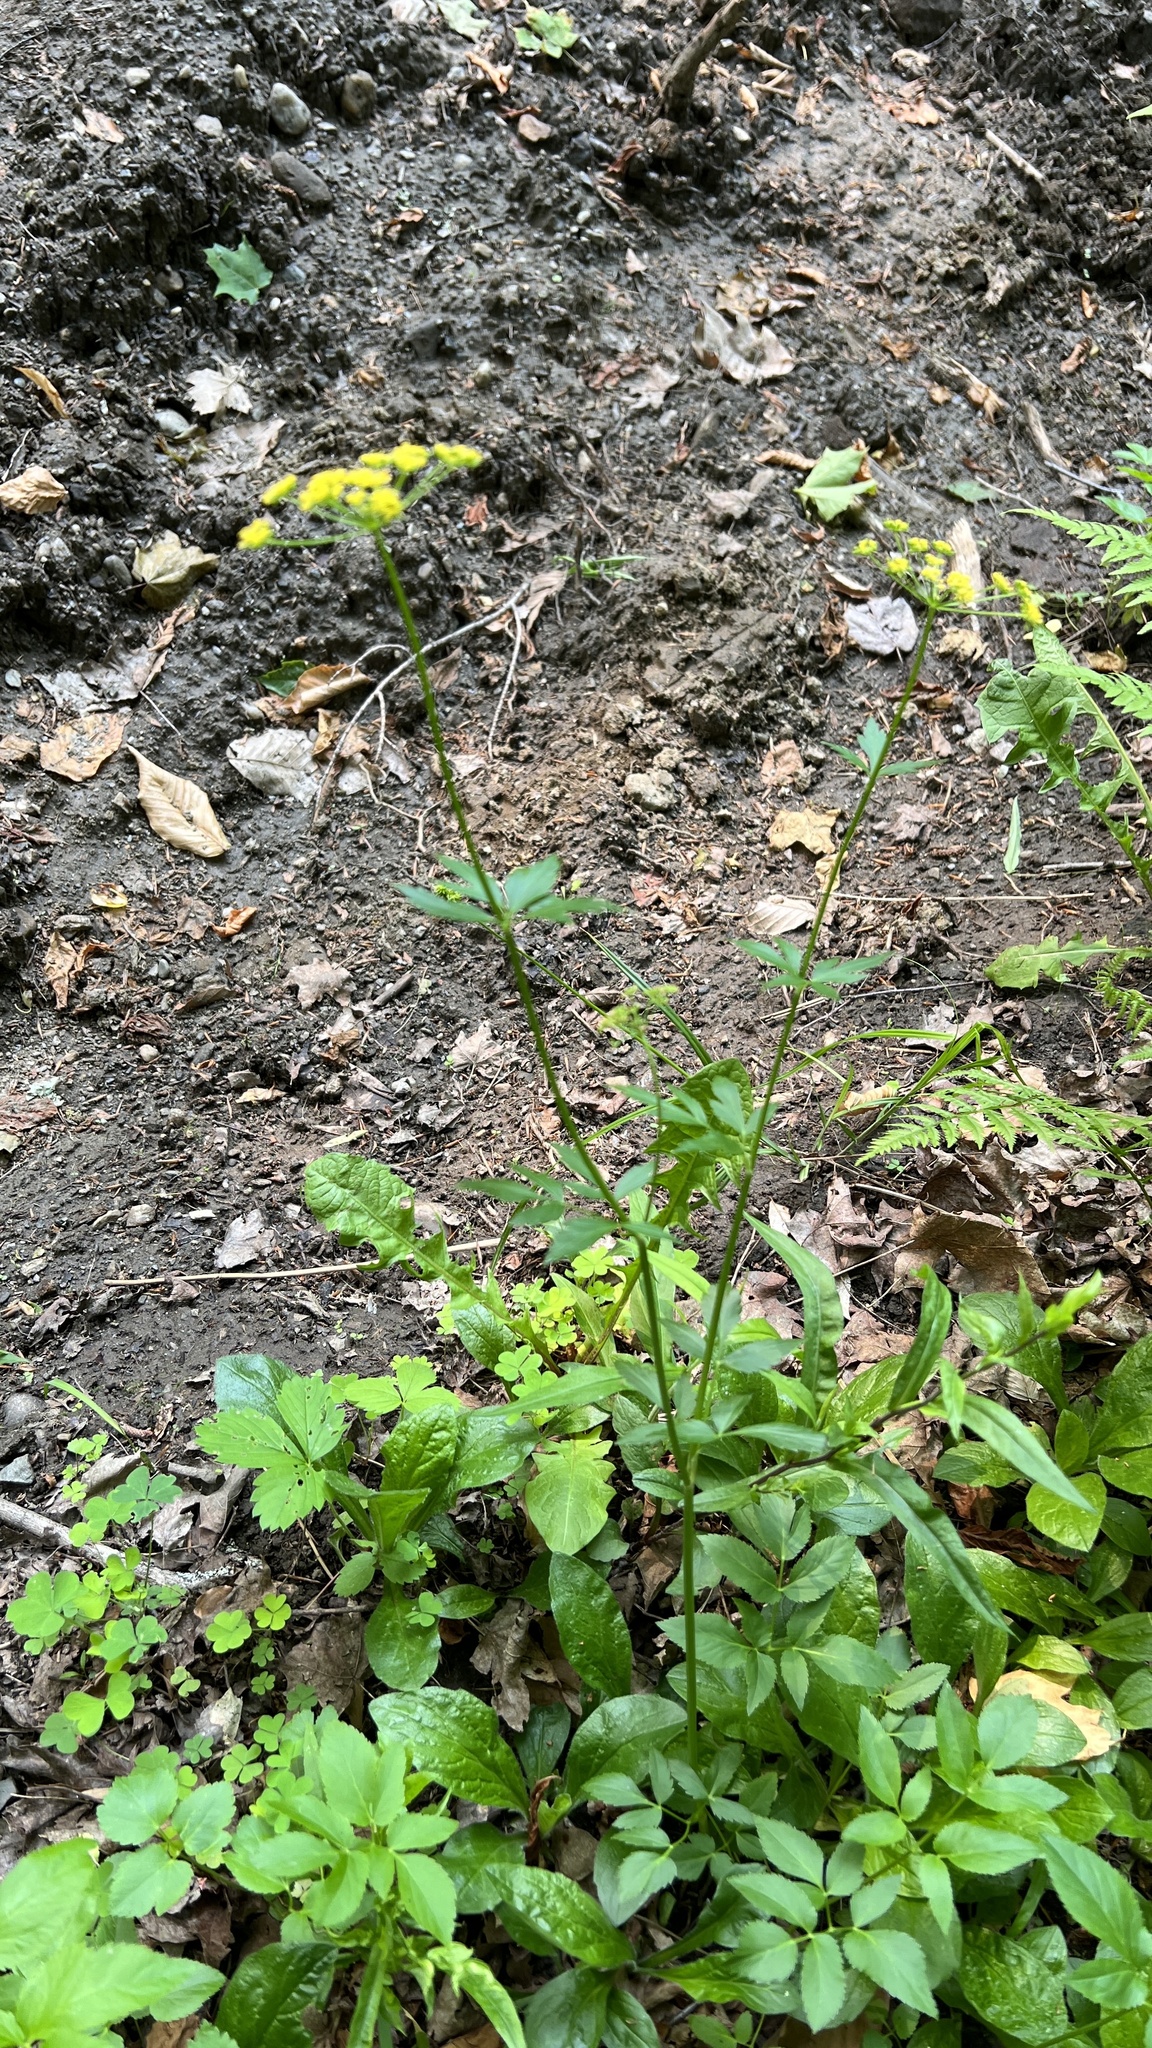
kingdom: Plantae
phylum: Tracheophyta
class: Magnoliopsida
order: Apiales
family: Apiaceae
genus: Zizia
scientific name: Zizia aurea
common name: Golden alexanders
